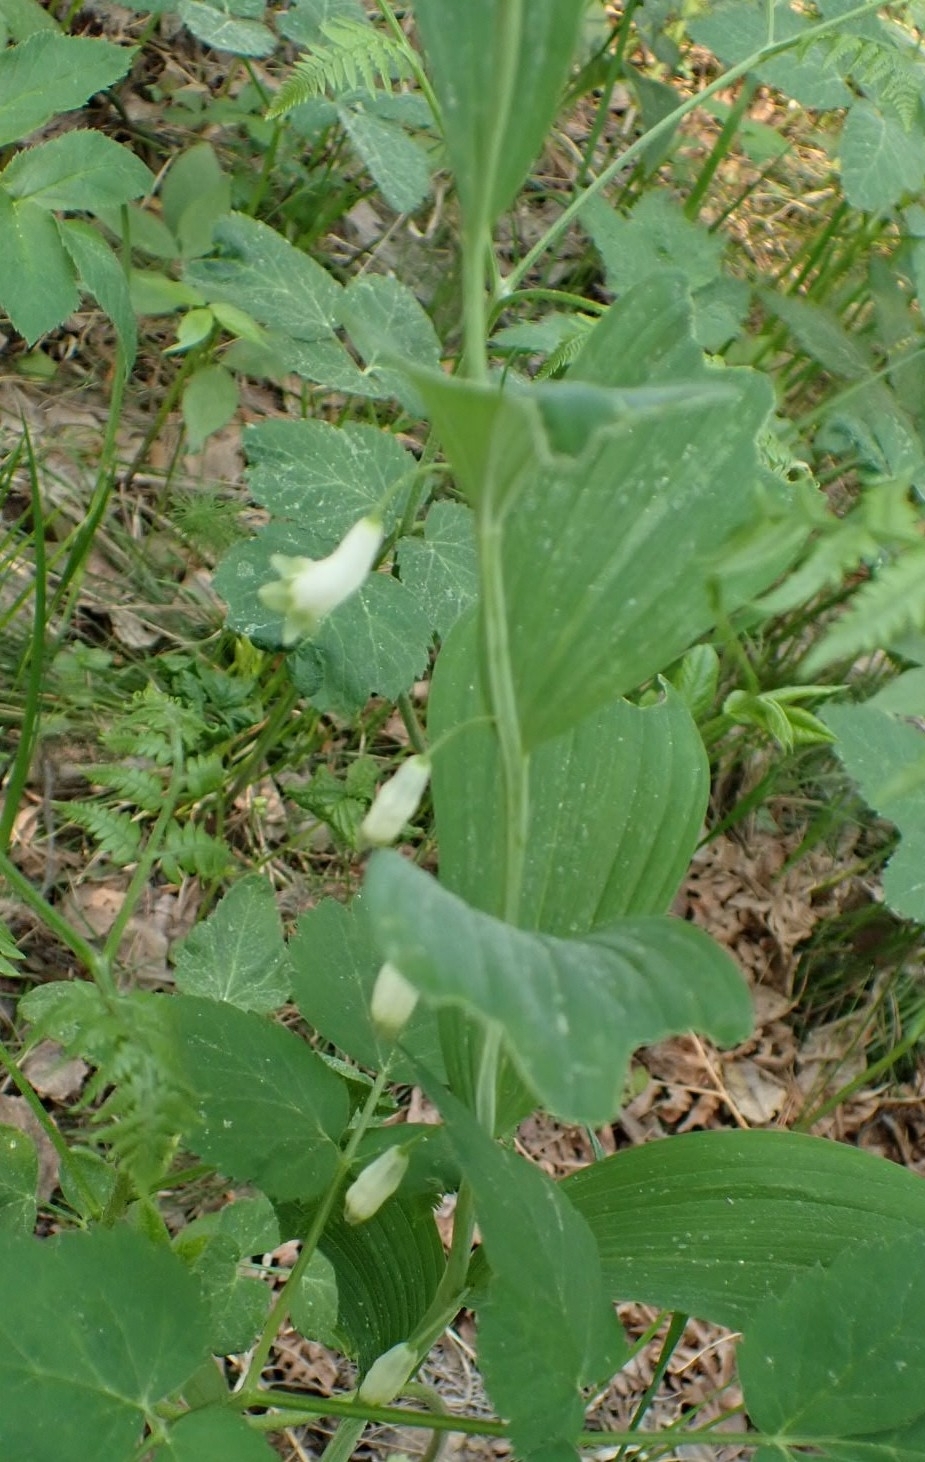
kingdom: Plantae
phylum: Tracheophyta
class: Liliopsida
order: Asparagales
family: Asparagaceae
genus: Polygonatum
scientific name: Polygonatum odoratum
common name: Angular solomon's-seal
